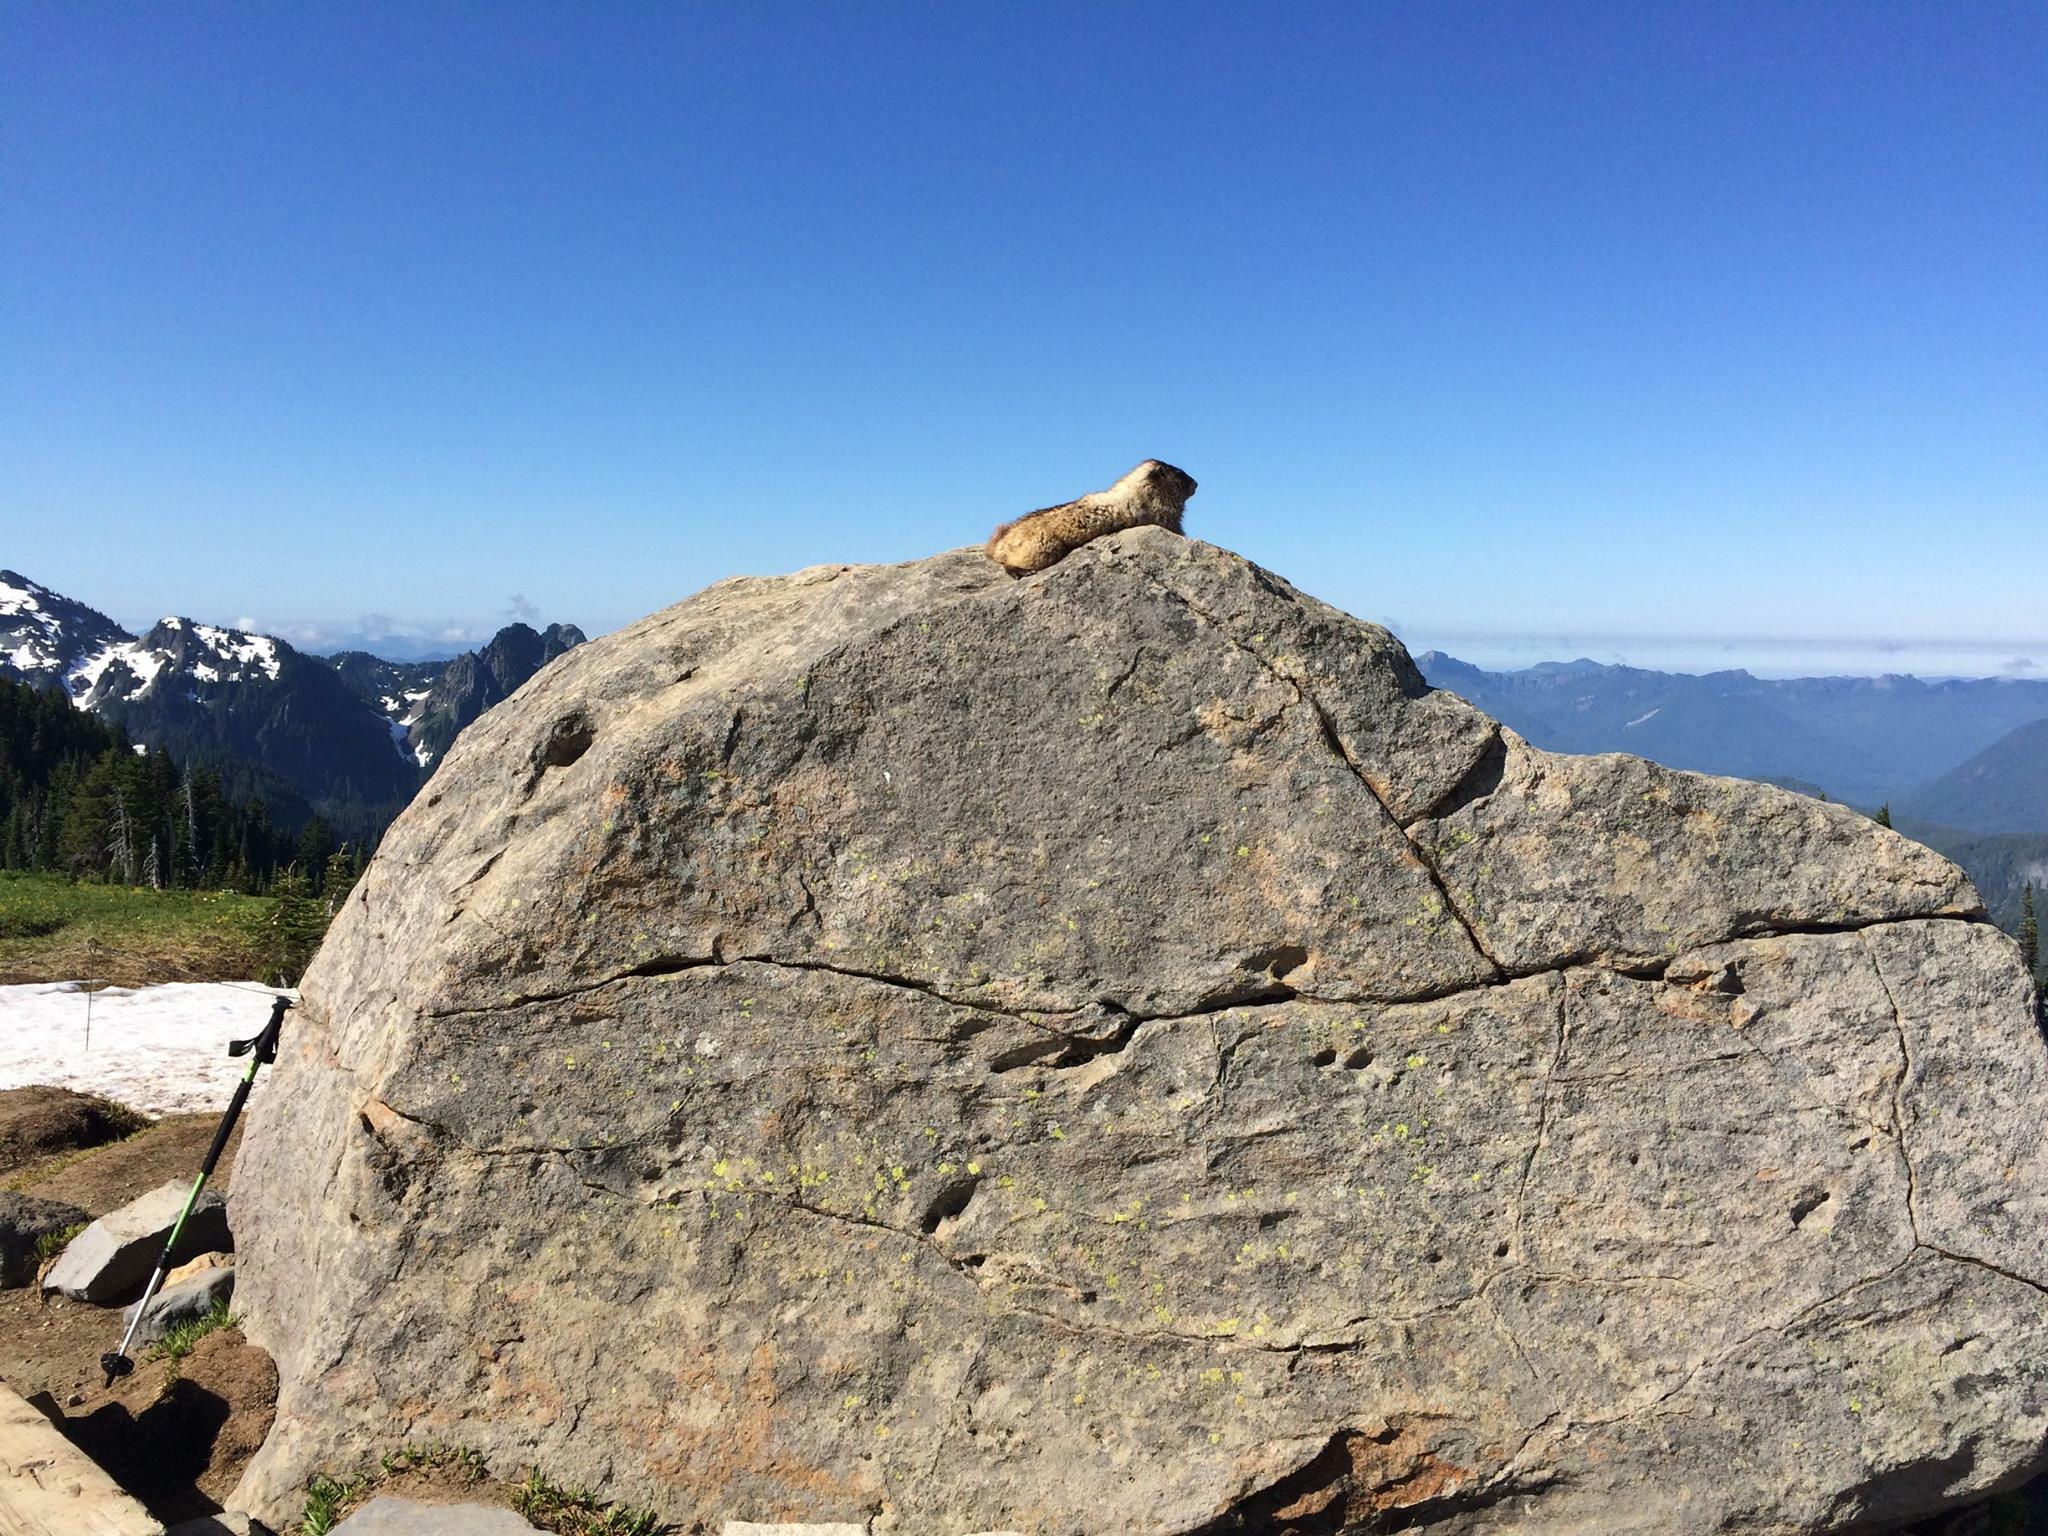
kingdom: Animalia
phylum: Chordata
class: Mammalia
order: Rodentia
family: Sciuridae
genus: Marmota
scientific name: Marmota caligata
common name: Hoary marmot
